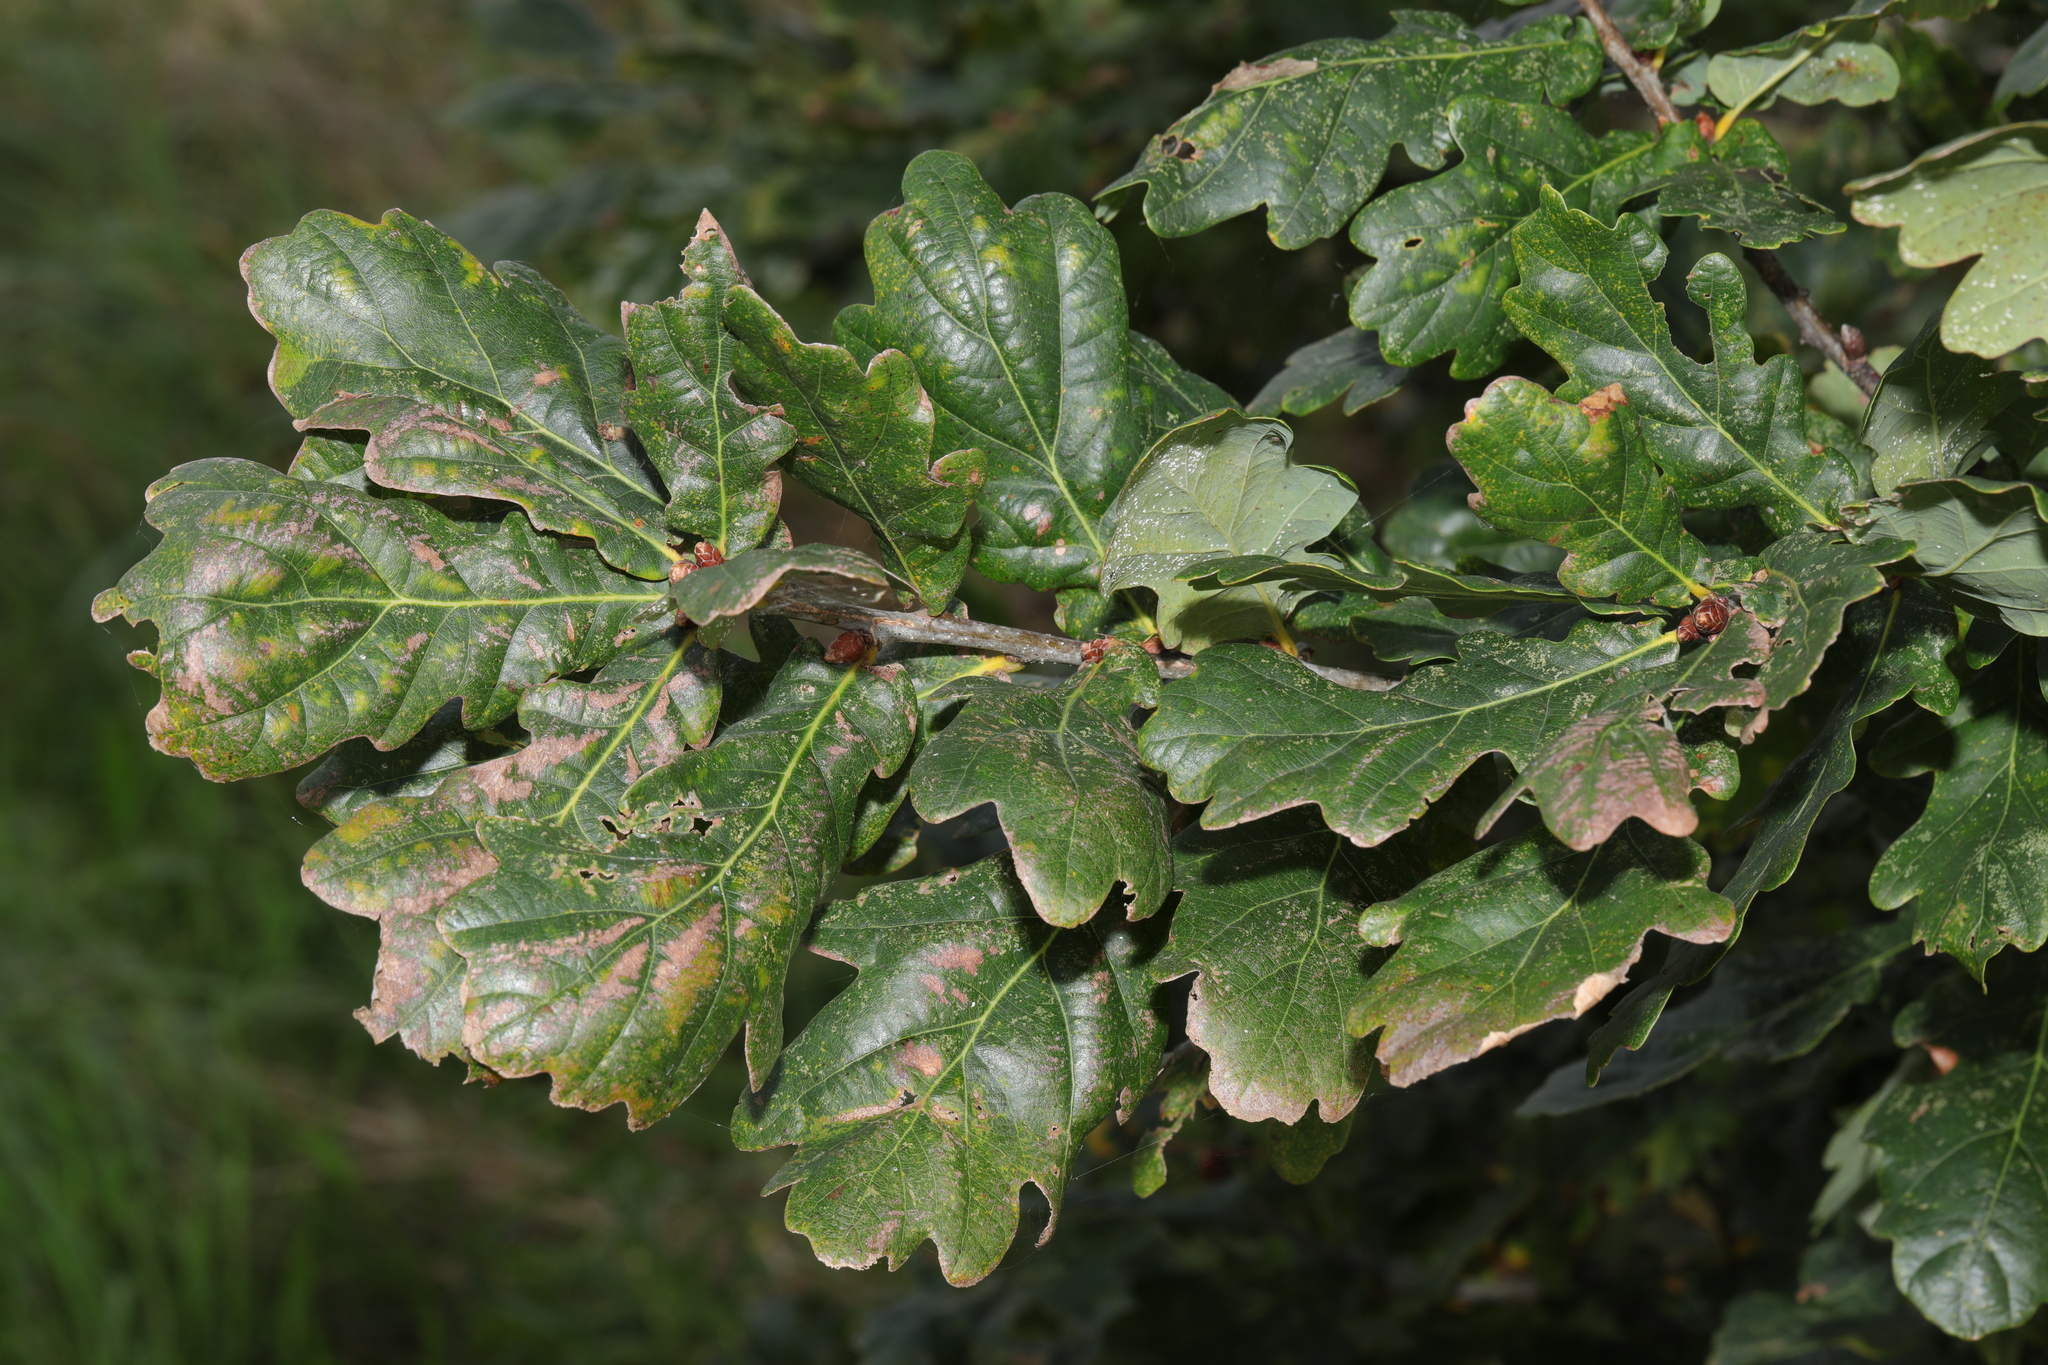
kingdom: Plantae
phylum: Tracheophyta
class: Magnoliopsida
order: Fagales
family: Fagaceae
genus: Quercus
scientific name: Quercus robur
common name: Pedunculate oak
